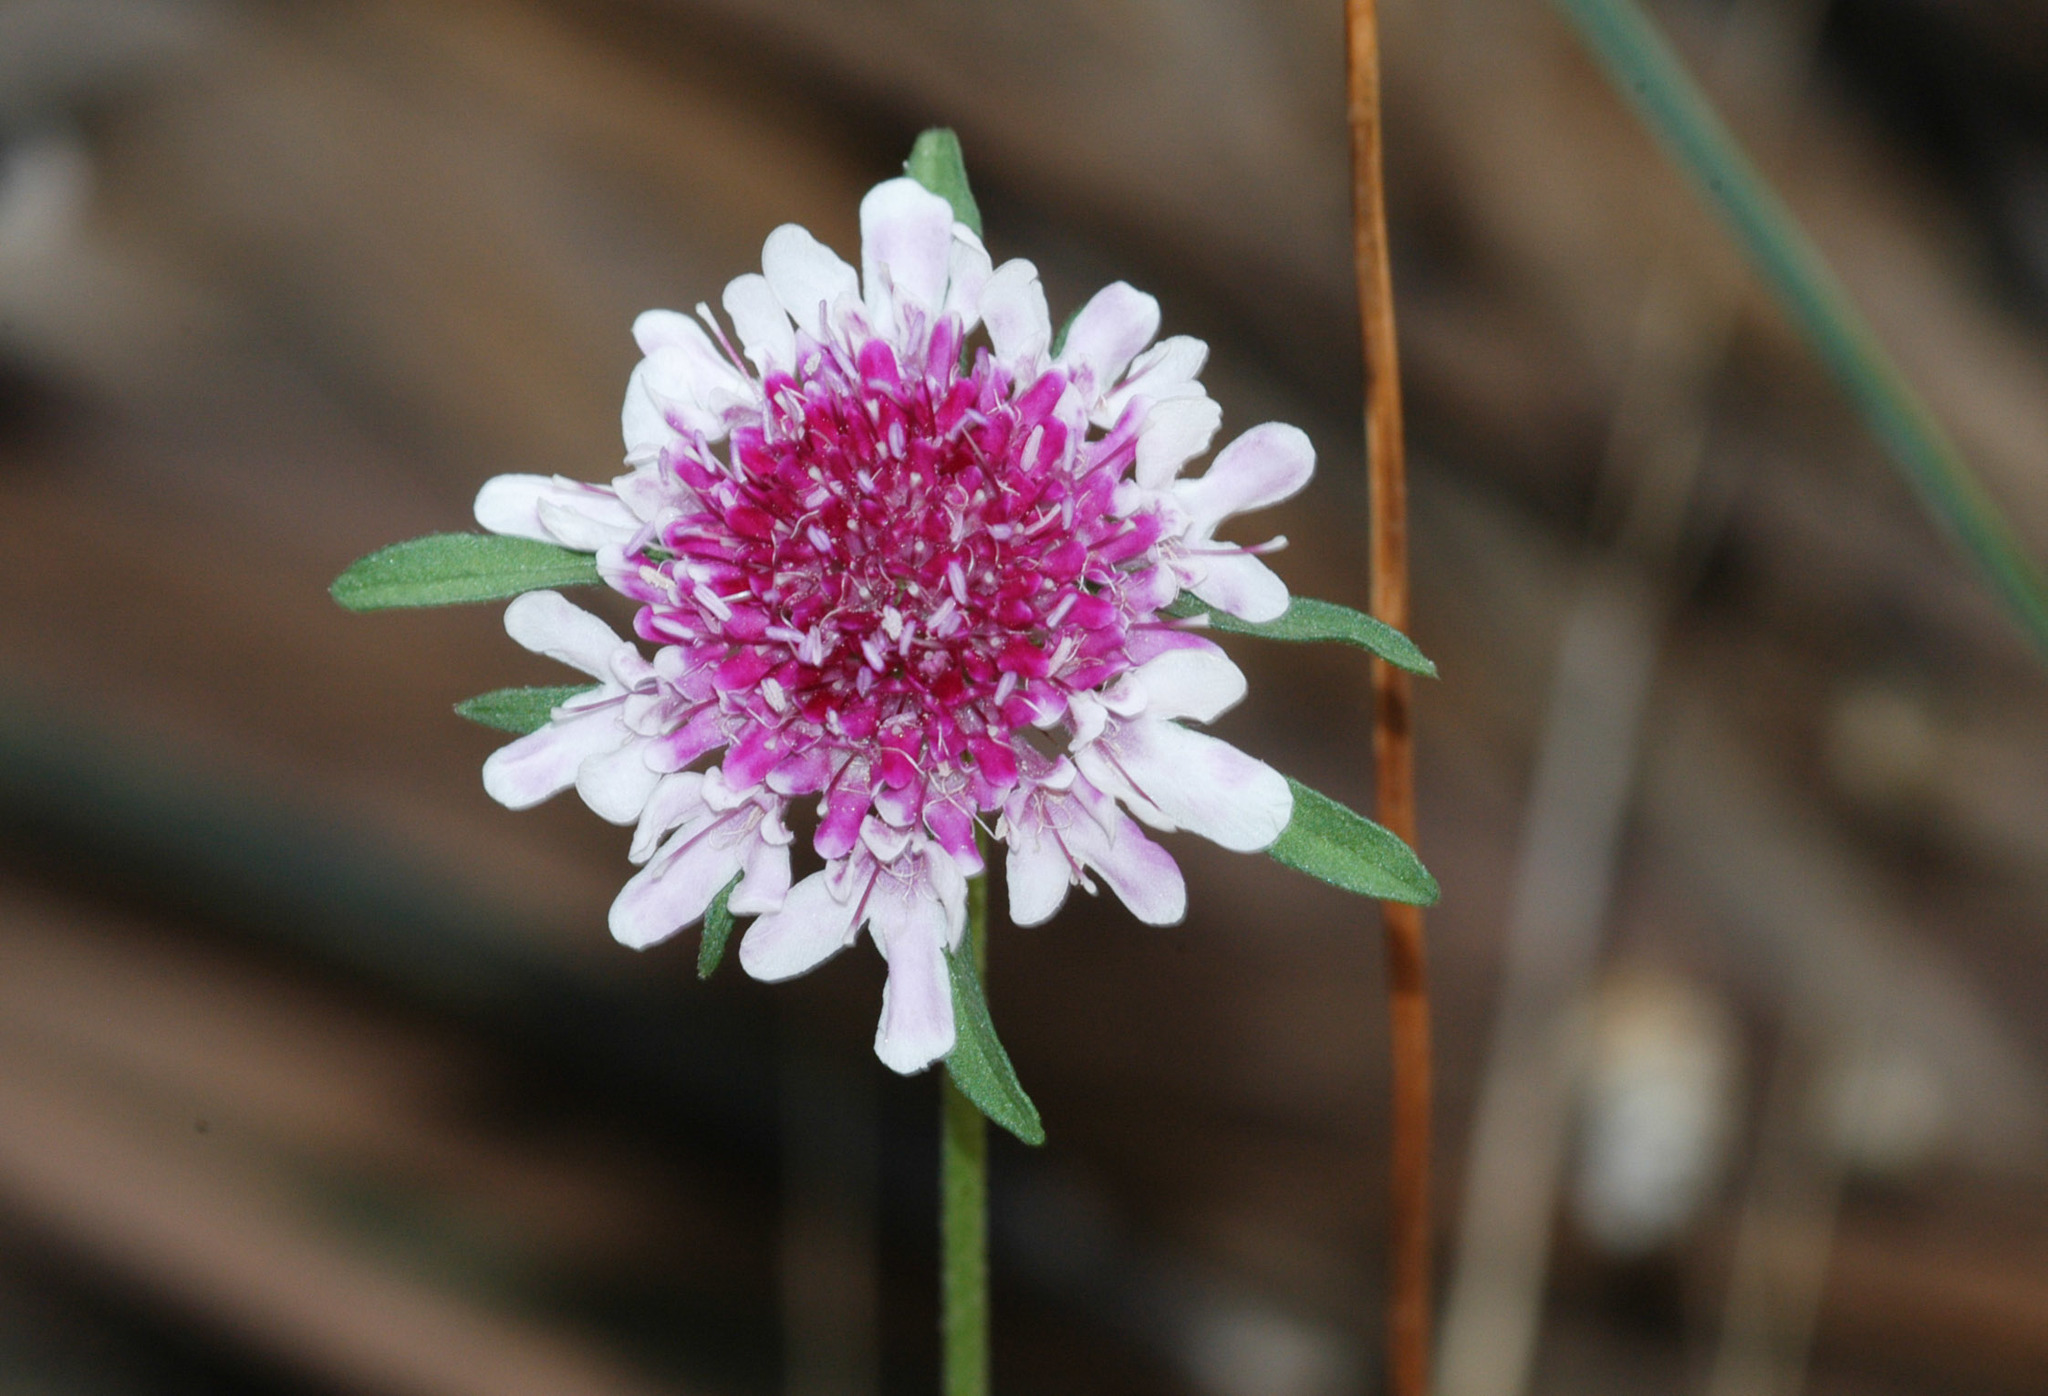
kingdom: Plantae
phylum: Tracheophyta
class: Magnoliopsida
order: Dipsacales
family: Caprifoliaceae
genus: Sixalix
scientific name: Sixalix atropurpurea
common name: Sweet scabious
